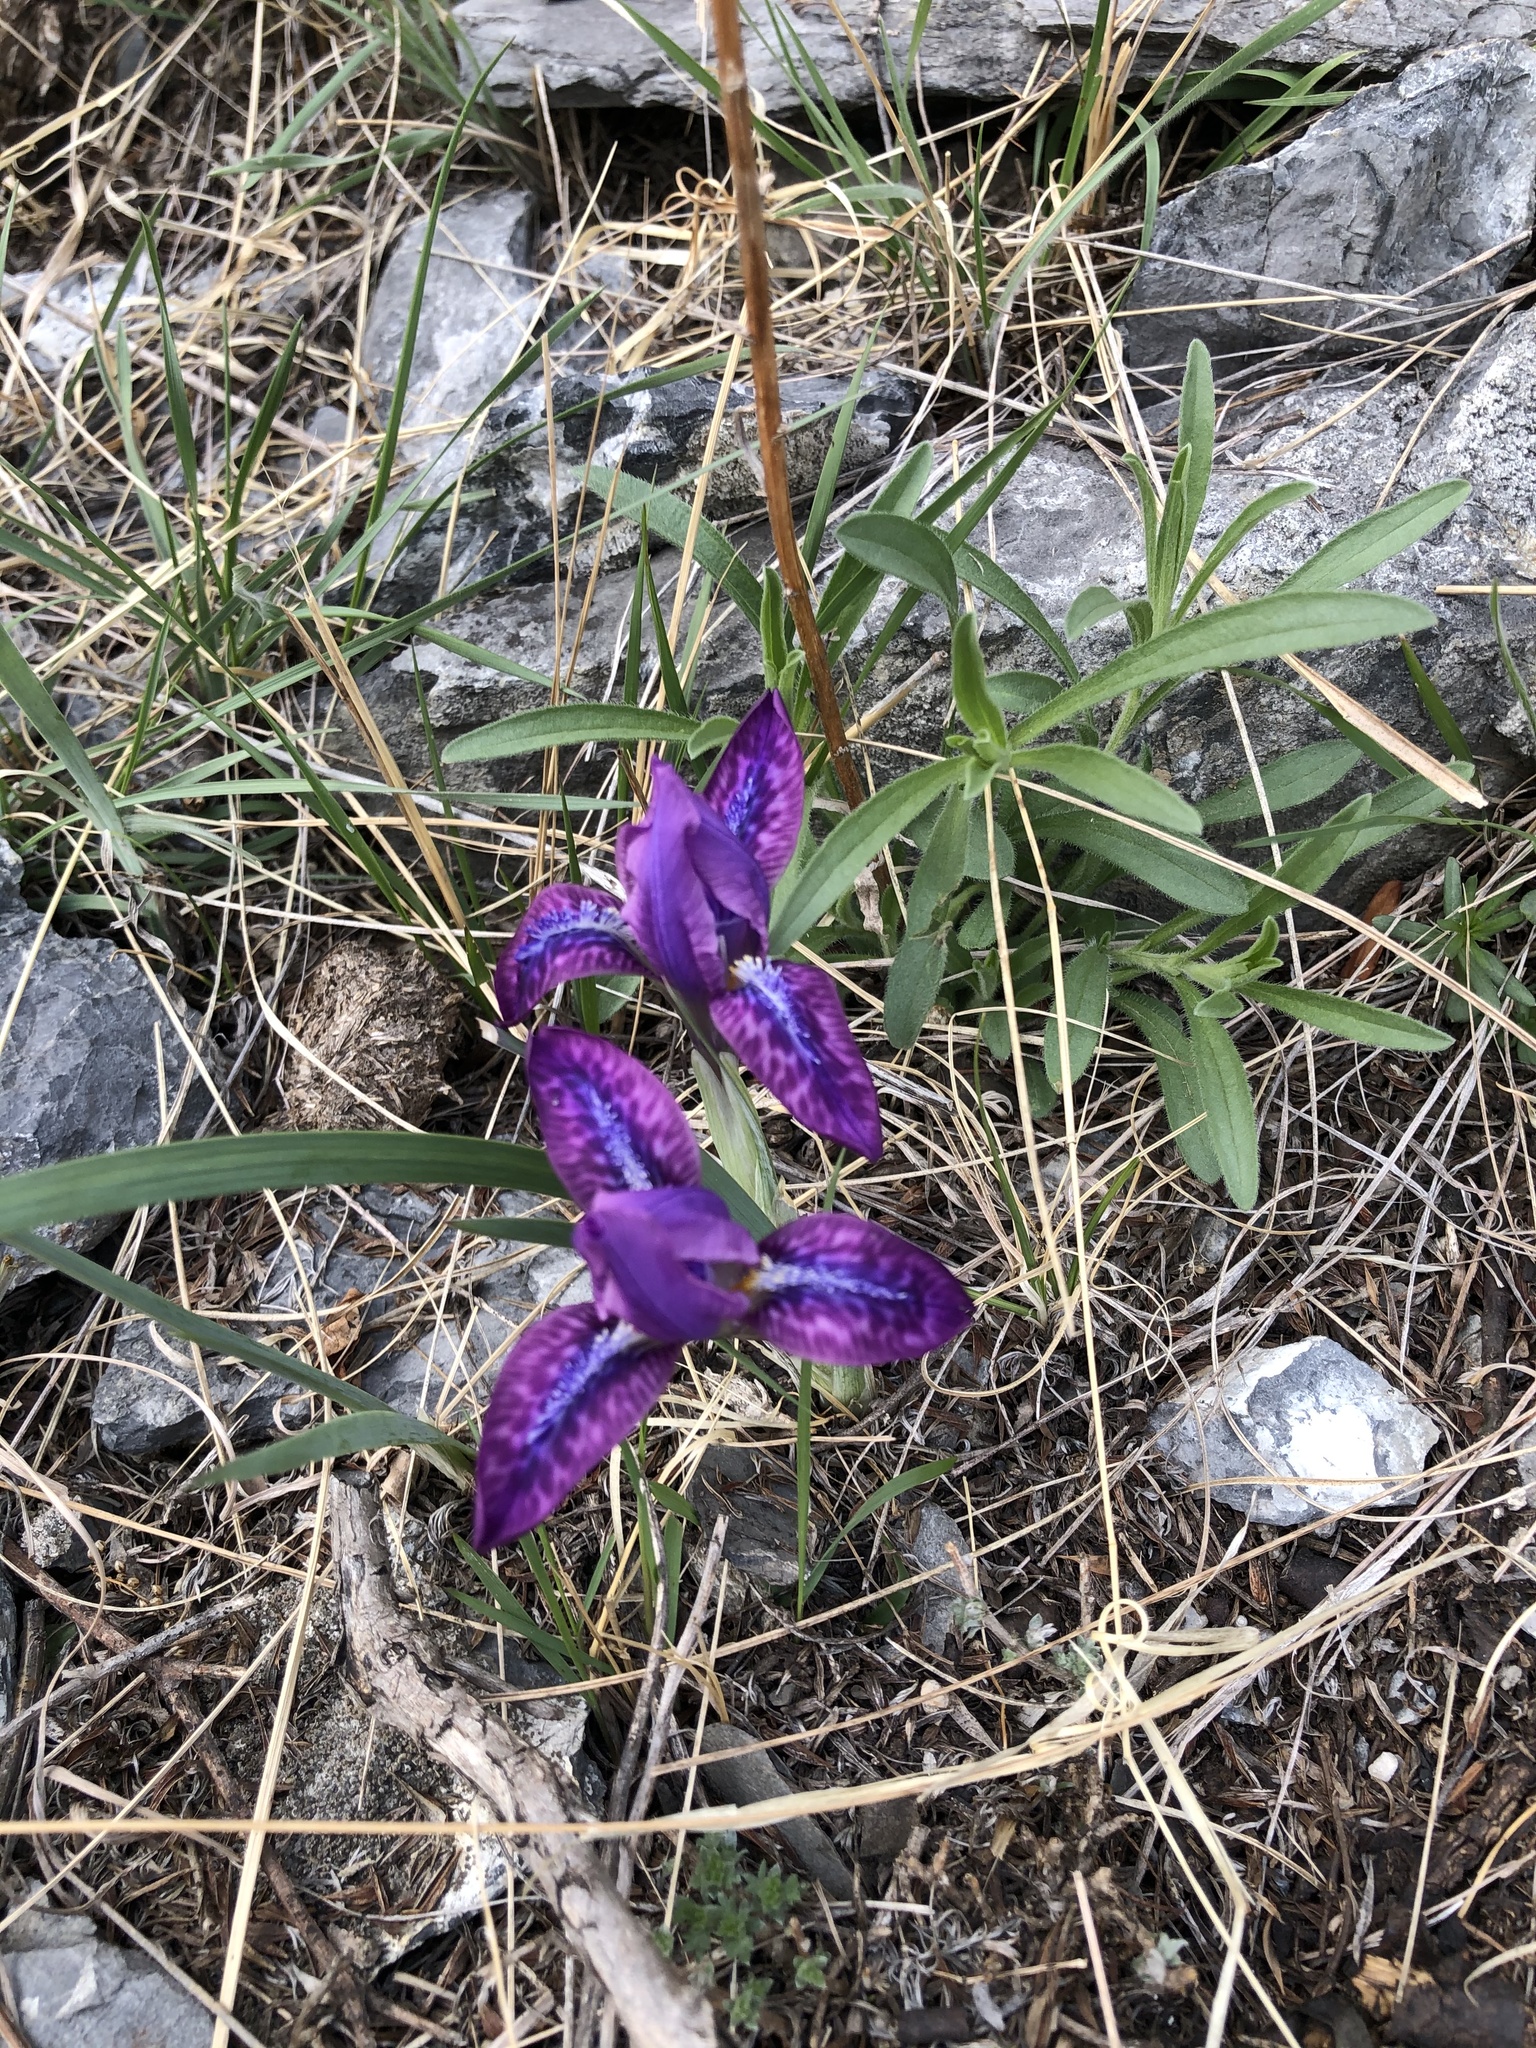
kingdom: Plantae
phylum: Tracheophyta
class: Liliopsida
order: Asparagales
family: Iridaceae
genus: Iris
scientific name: Iris tigridia
